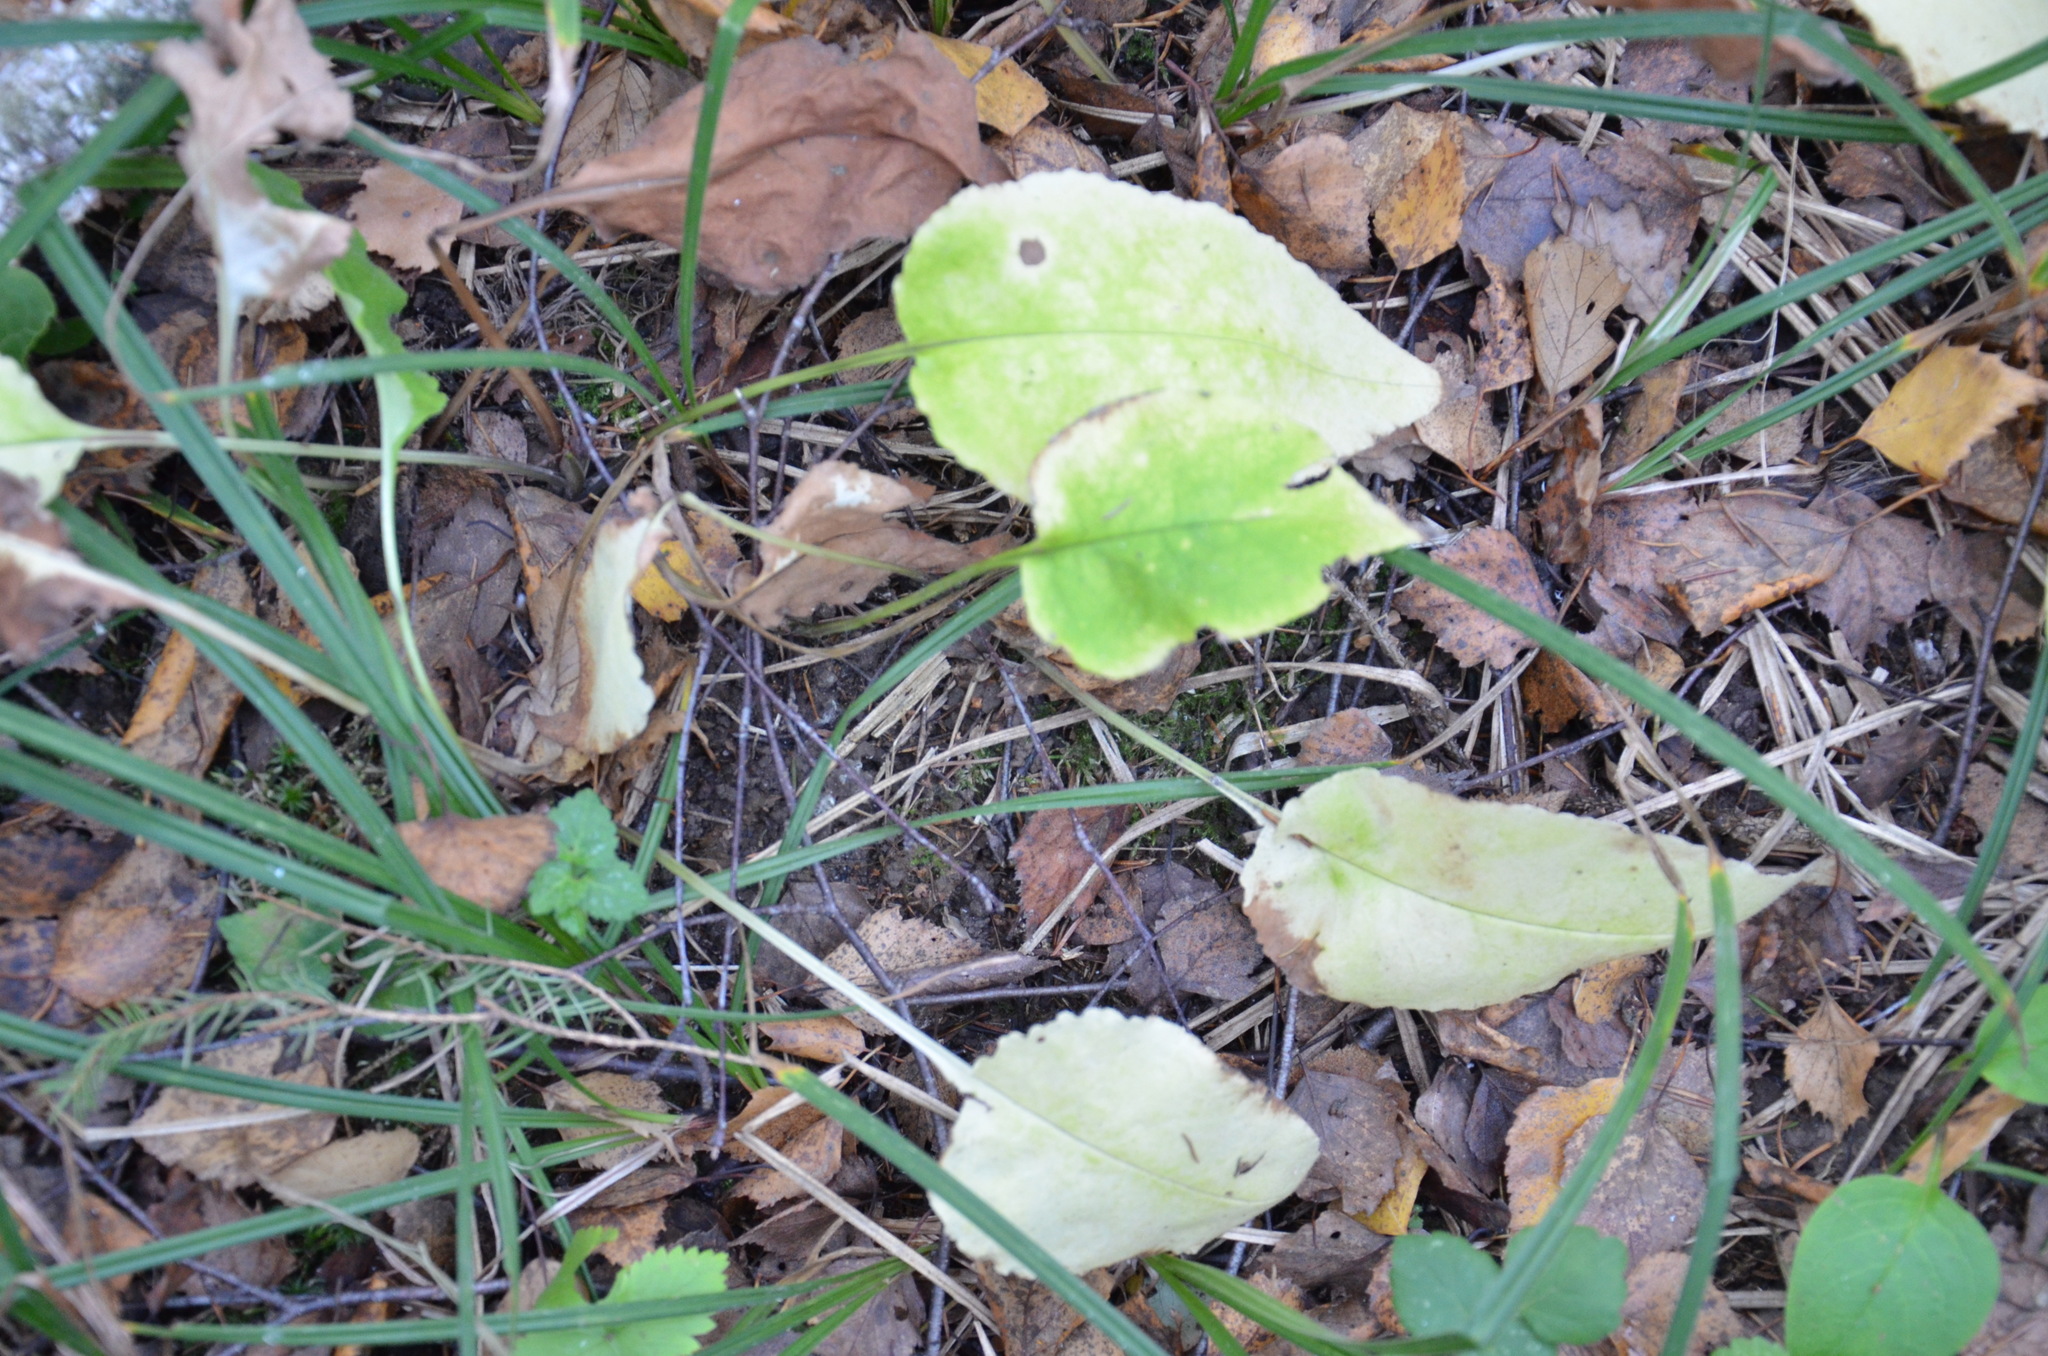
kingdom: Plantae
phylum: Tracheophyta
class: Magnoliopsida
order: Boraginales
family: Boraginaceae
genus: Pulmonaria
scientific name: Pulmonaria obscura
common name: Suffolk lungwort
